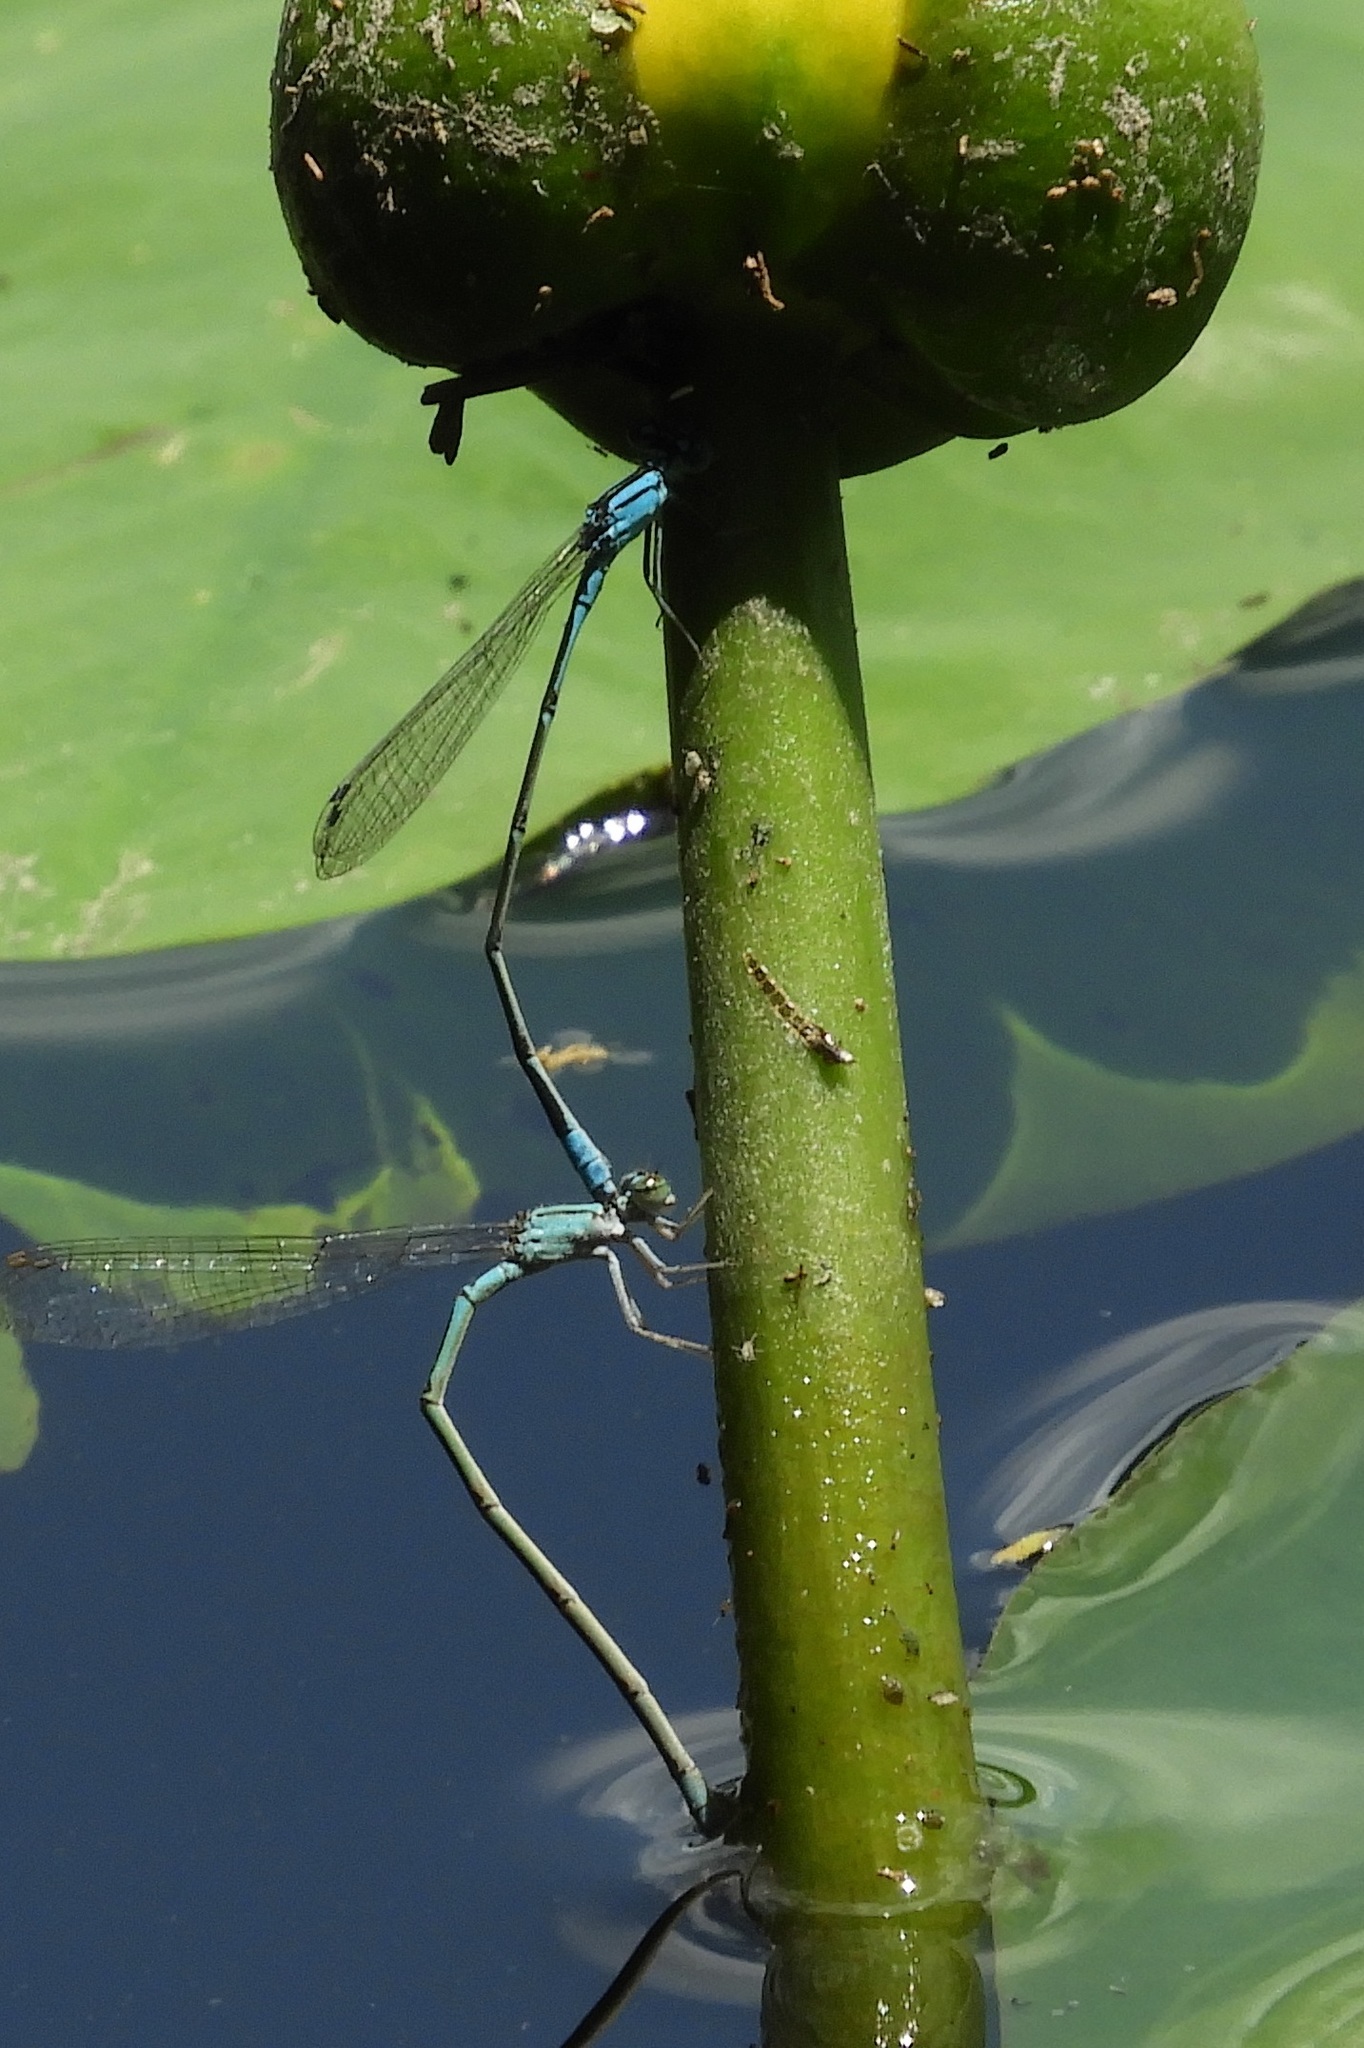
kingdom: Animalia
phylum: Arthropoda
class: Insecta
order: Odonata
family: Coenagrionidae
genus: Enallagma
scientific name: Enallagma traviatum
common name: Slender bluet
